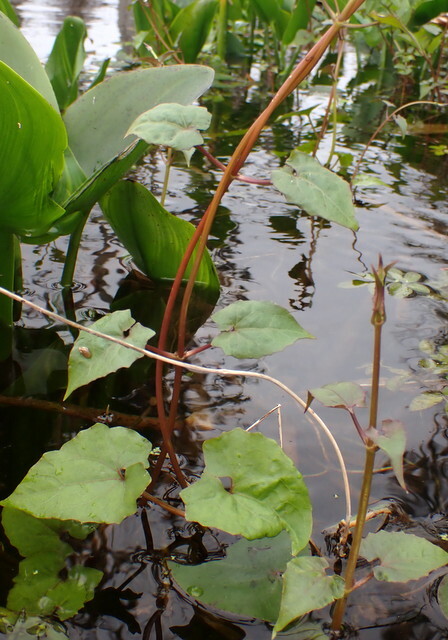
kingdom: Plantae
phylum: Tracheophyta
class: Magnoliopsida
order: Asterales
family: Asteraceae
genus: Mikania
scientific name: Mikania scandens
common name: Climbing hempvine
